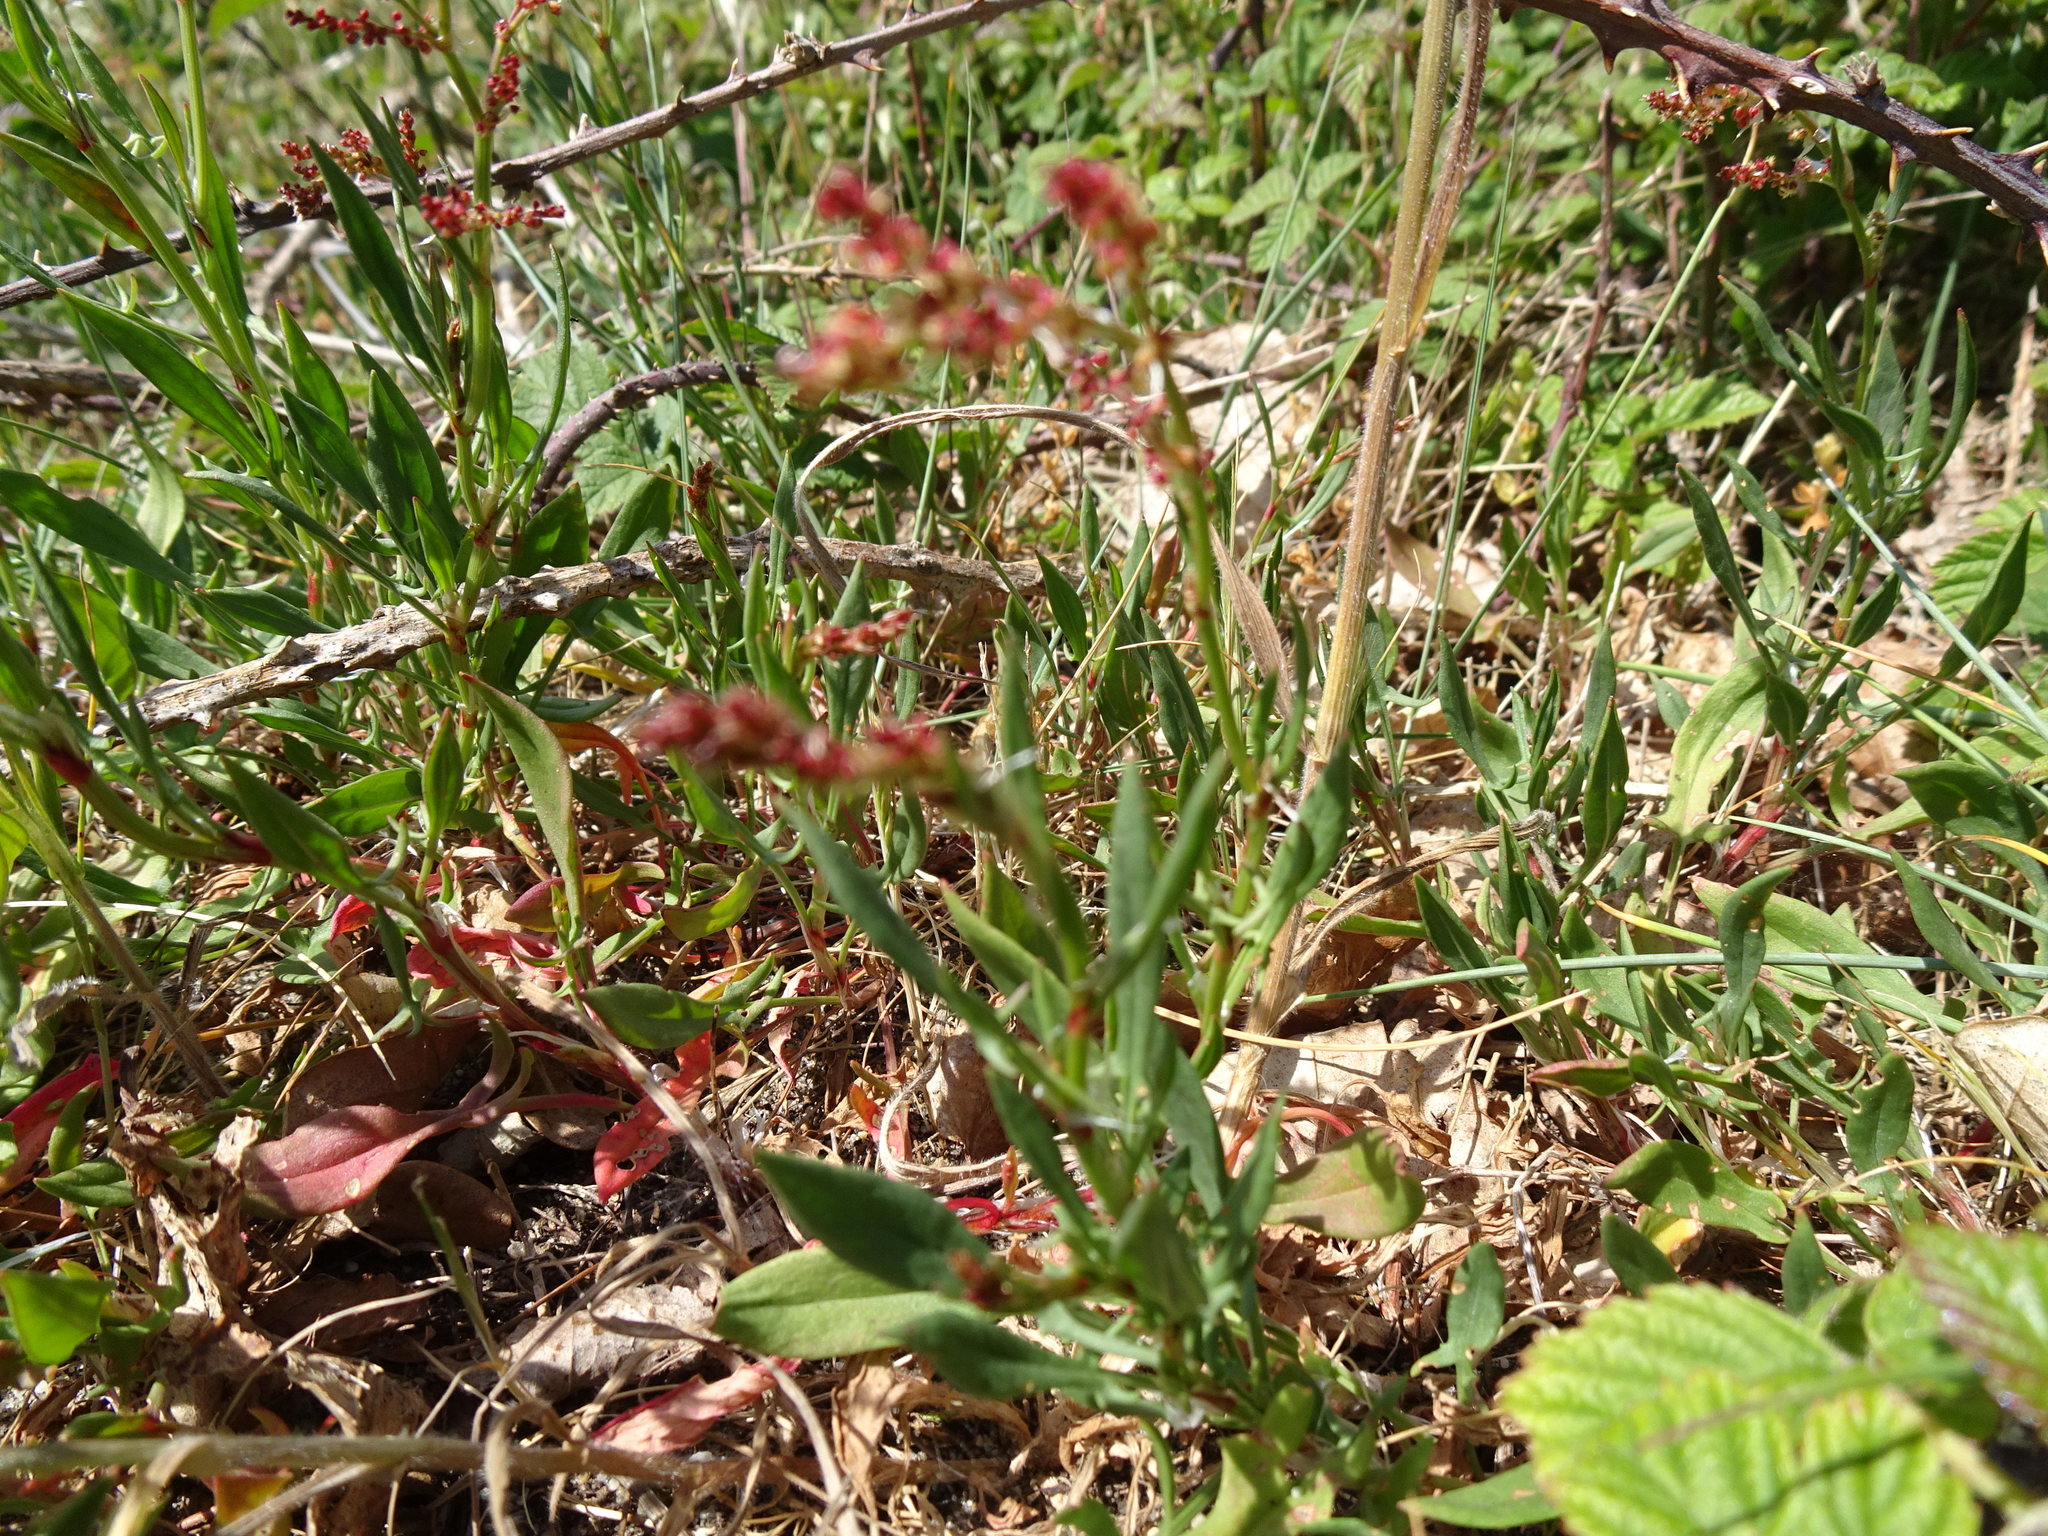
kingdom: Plantae
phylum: Tracheophyta
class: Magnoliopsida
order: Caryophyllales
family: Polygonaceae
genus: Rumex
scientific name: Rumex acetosella
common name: Common sheep sorrel
